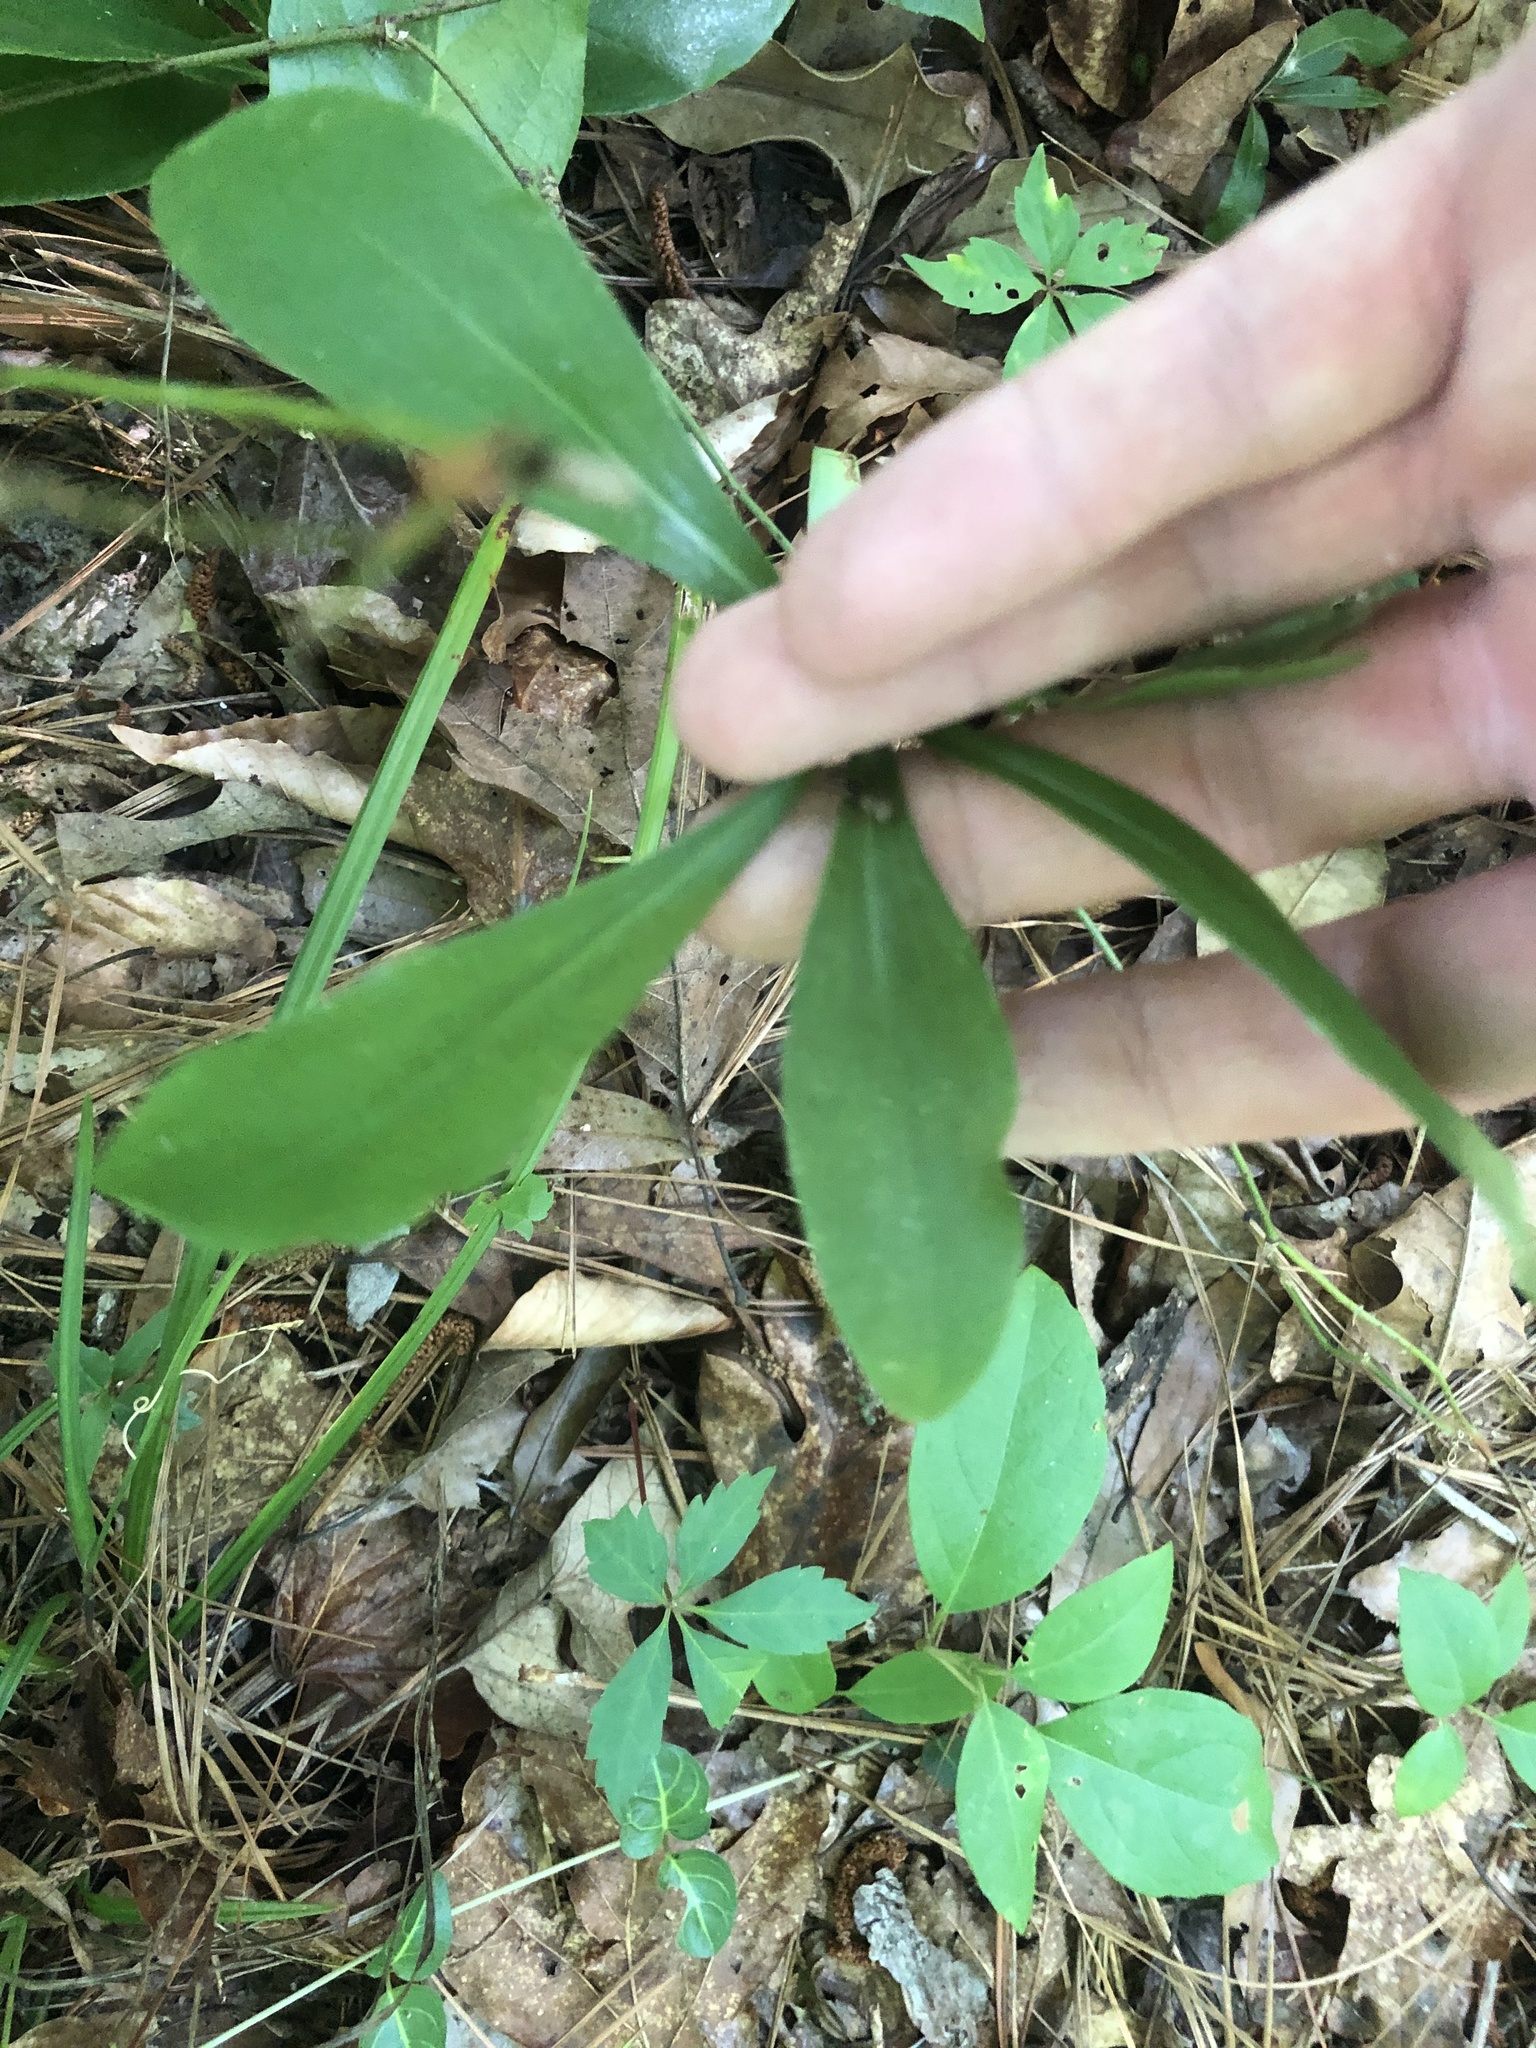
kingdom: Plantae
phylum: Tracheophyta
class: Liliopsida
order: Liliales
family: Liliaceae
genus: Lilium
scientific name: Lilium michauxii
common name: Carolina lily
